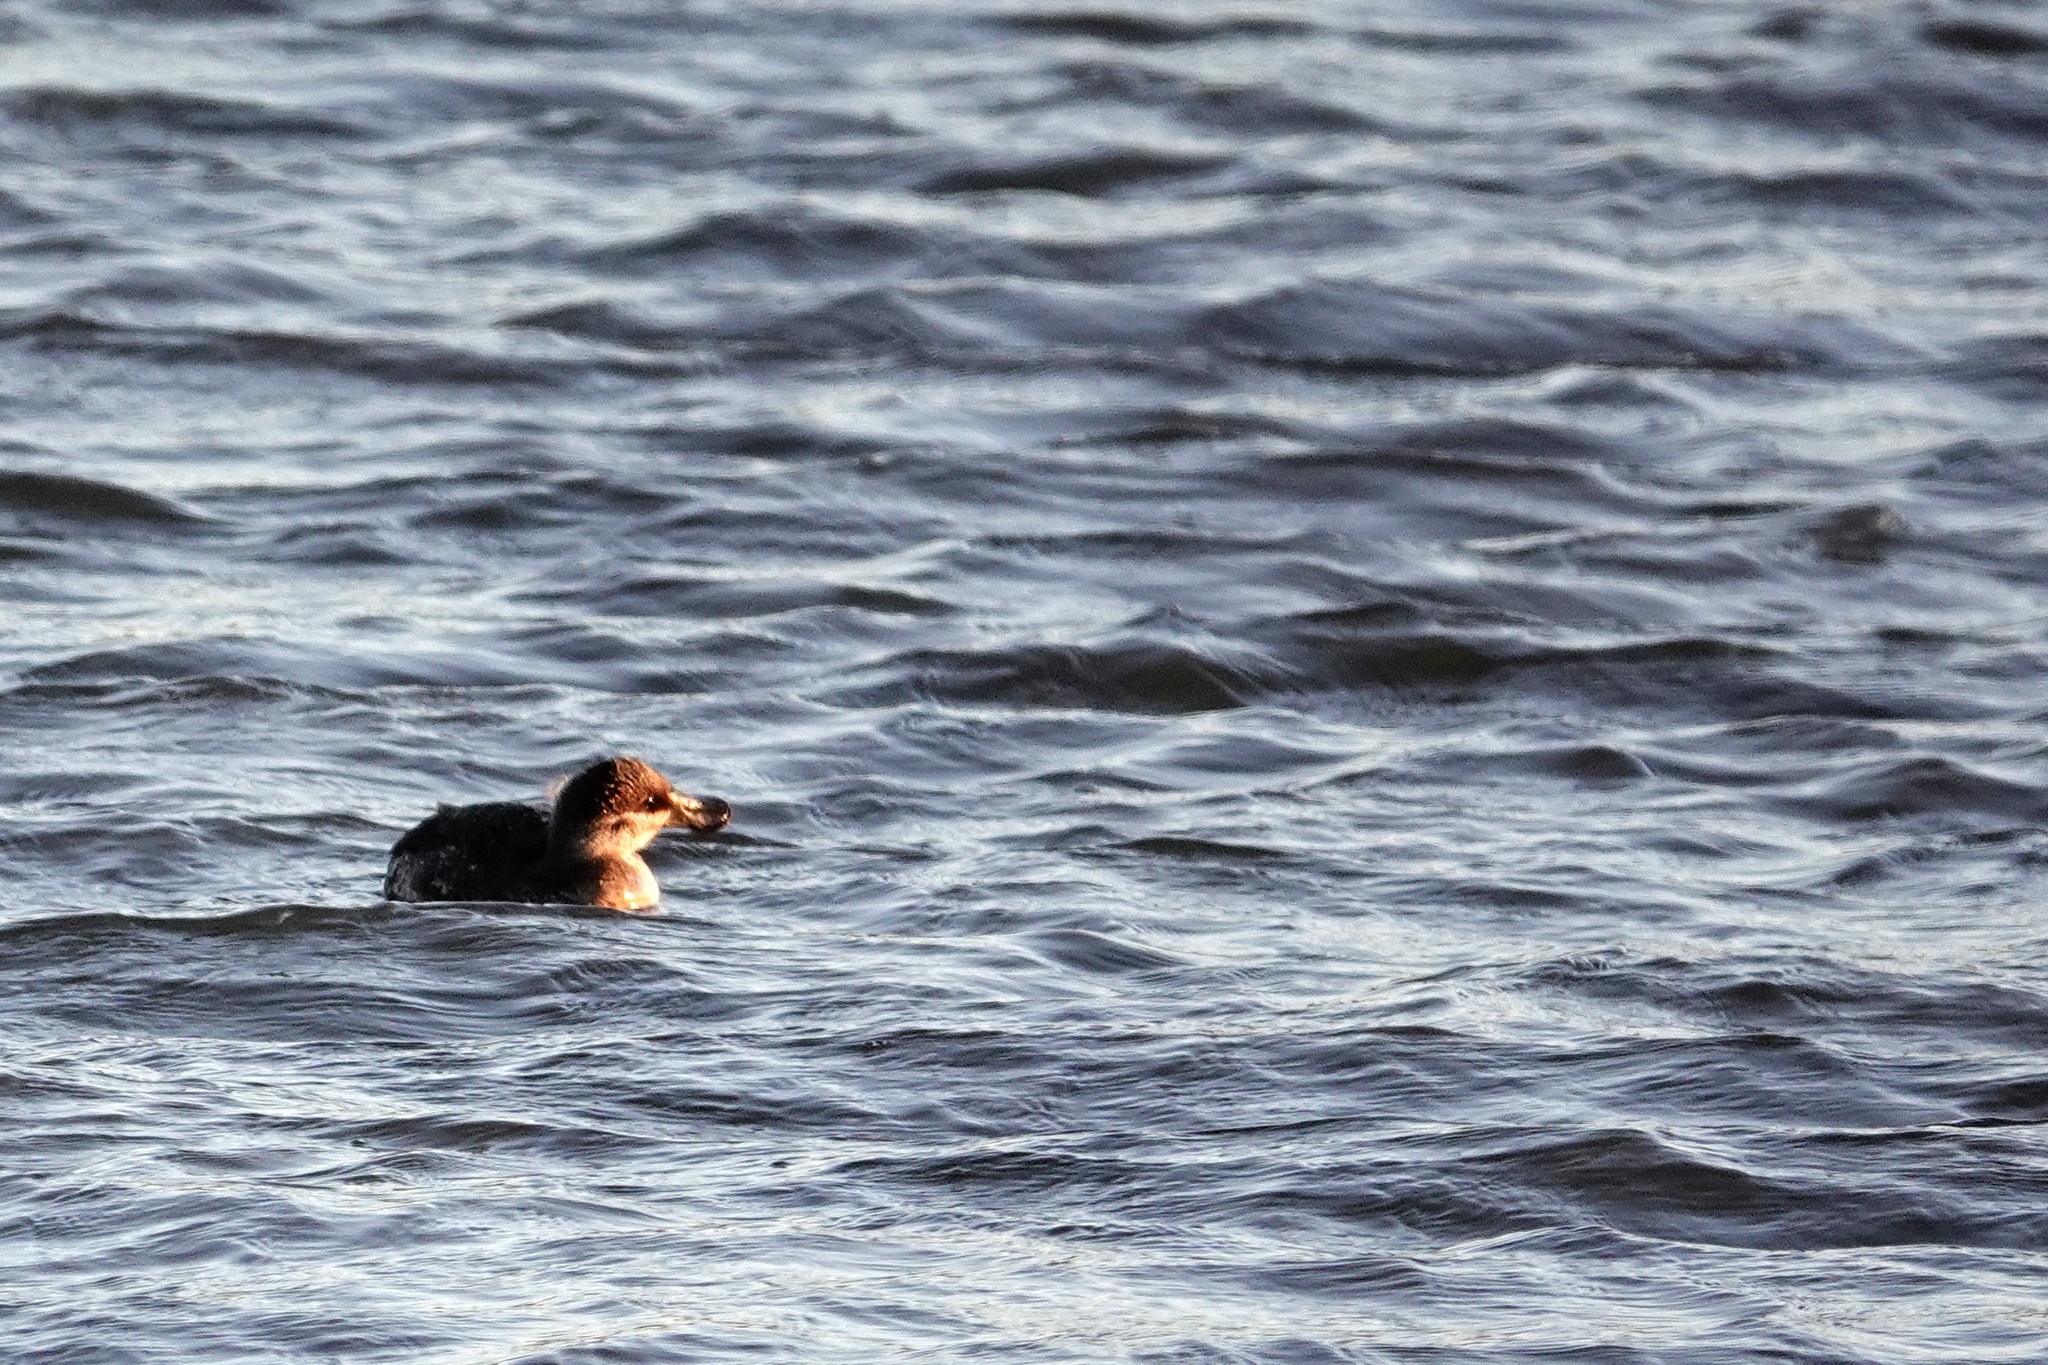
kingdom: Animalia
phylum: Chordata
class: Aves
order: Anseriformes
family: Anatidae
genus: Oxyura
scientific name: Oxyura jamaicensis
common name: Ruddy duck
